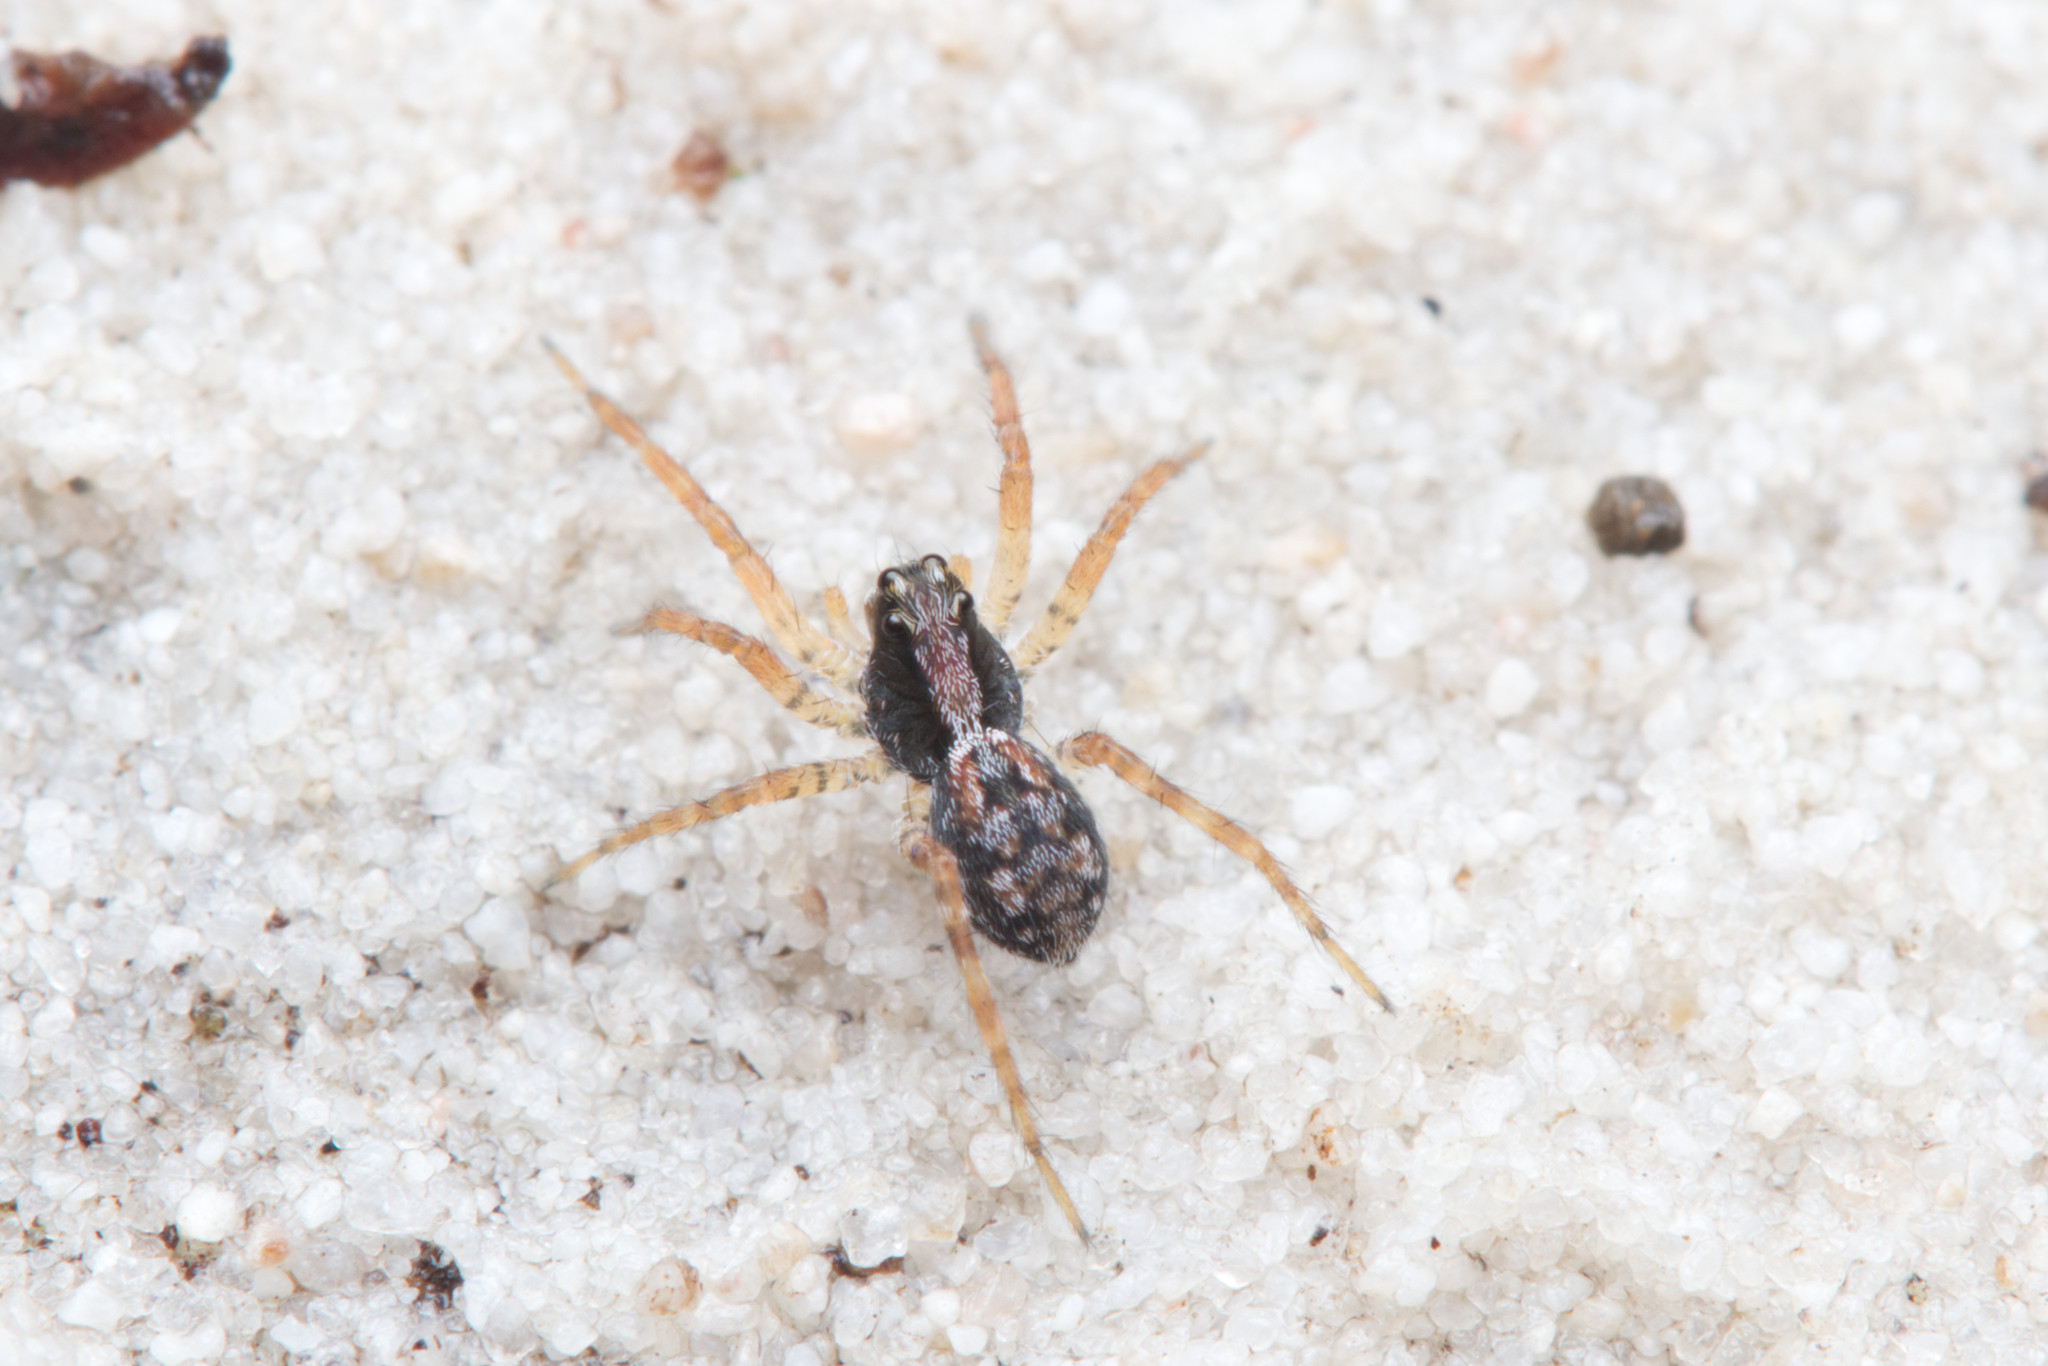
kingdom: Animalia
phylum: Arthropoda
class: Arachnida
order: Araneae
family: Lycosidae
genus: Venator
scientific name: Venator spenceri
